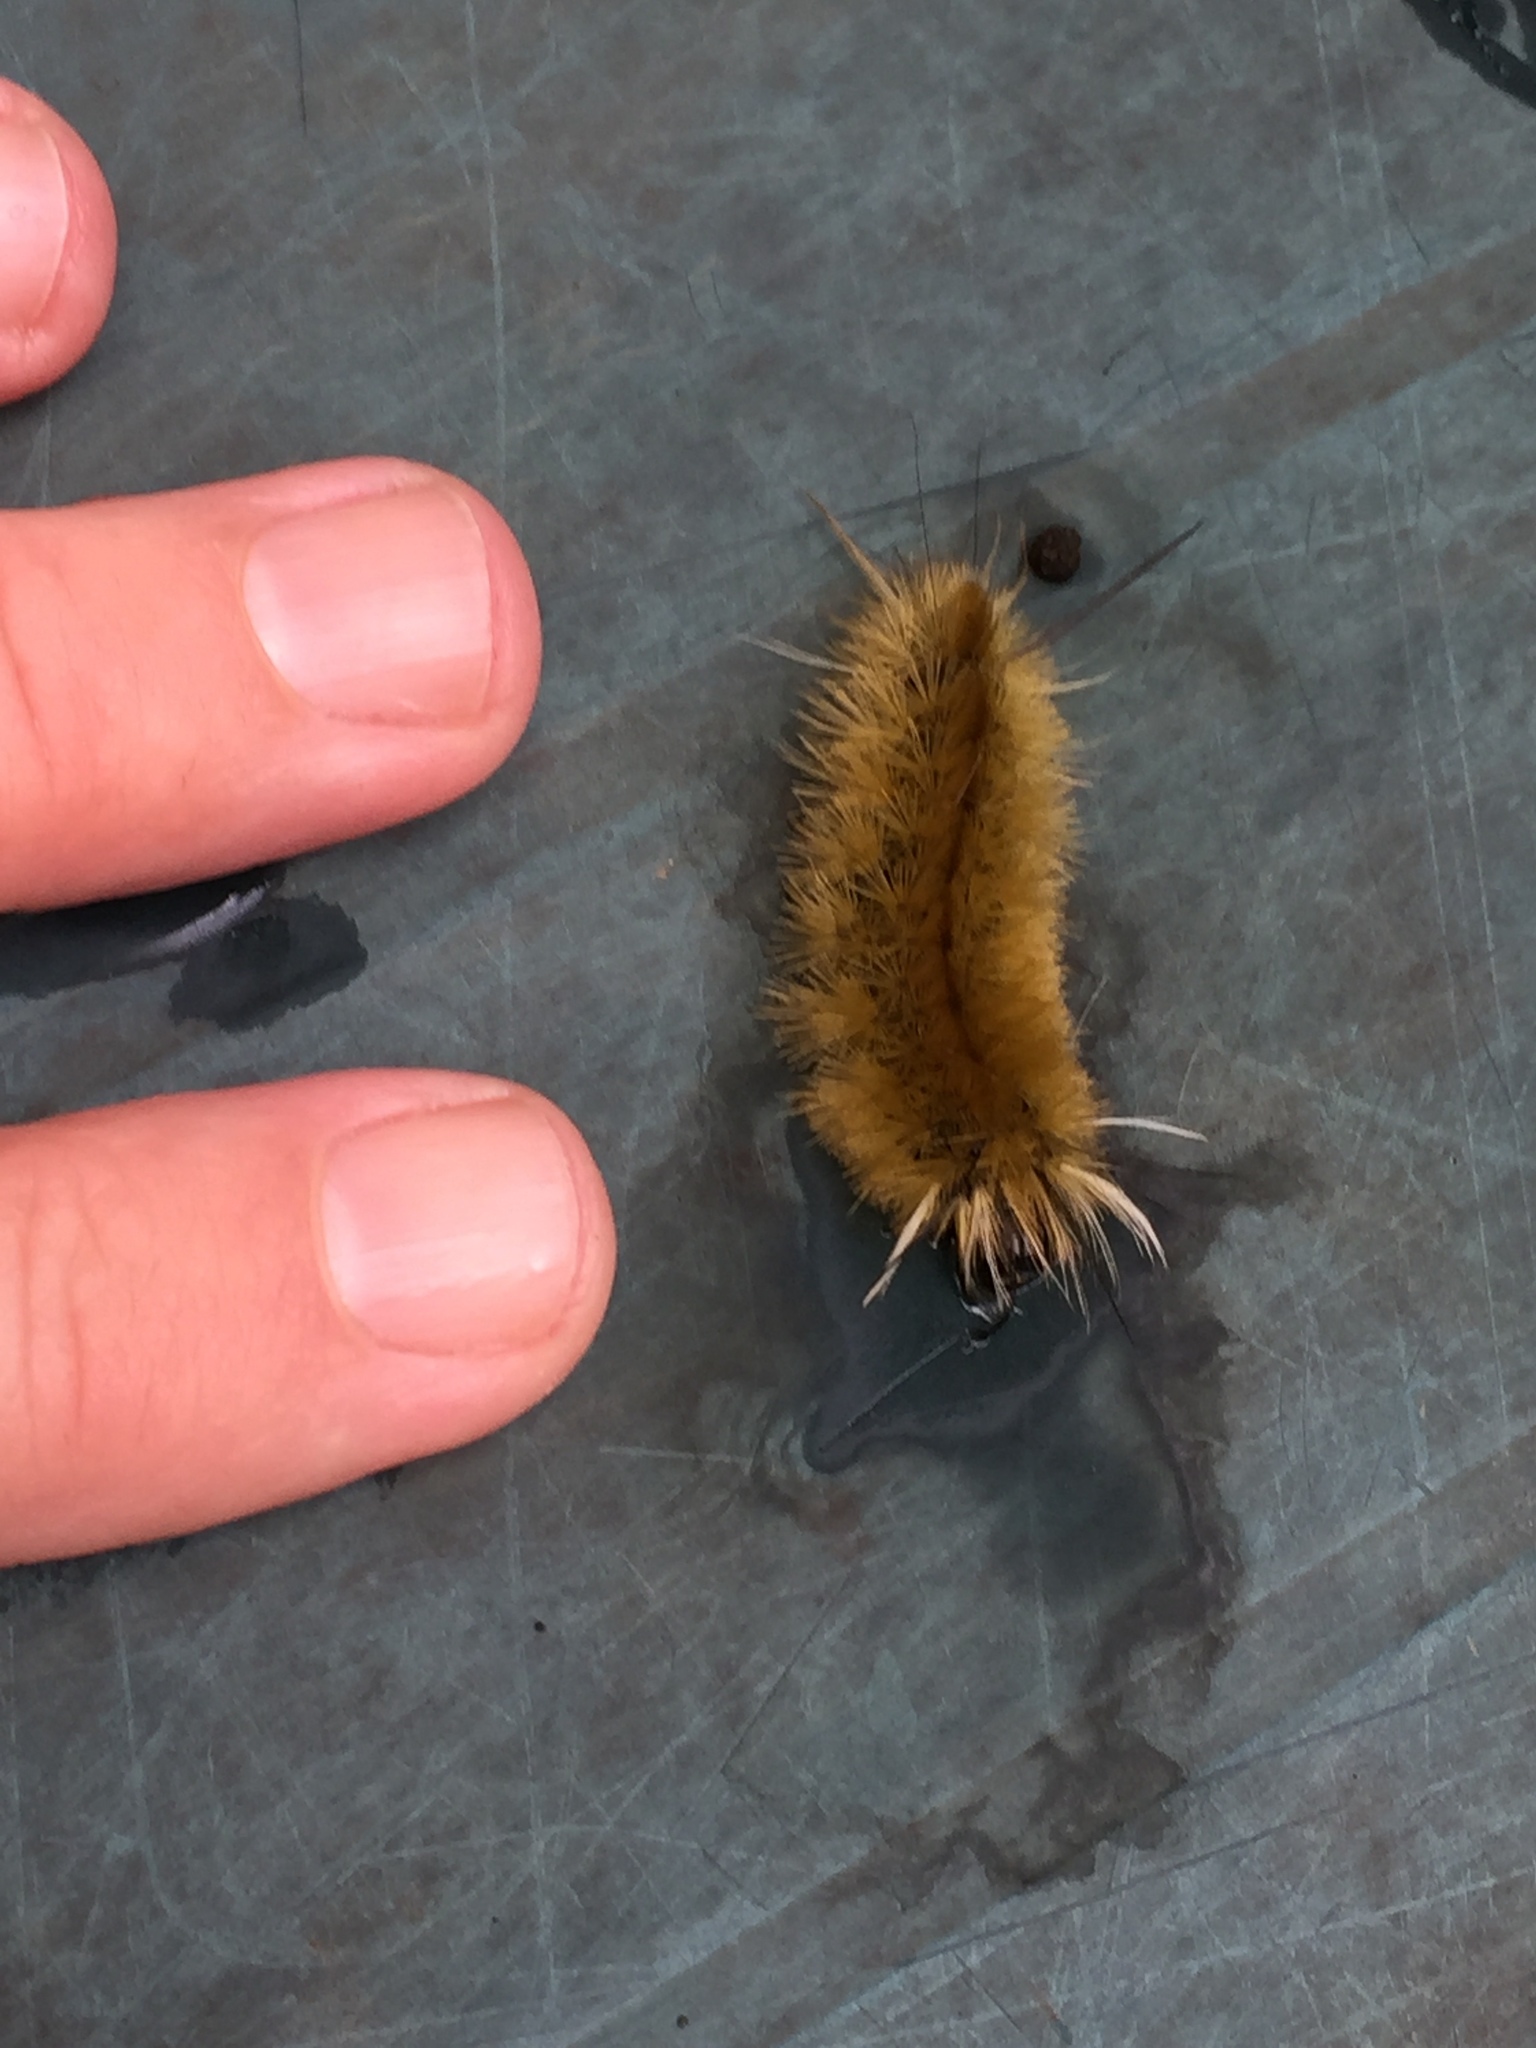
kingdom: Animalia
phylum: Arthropoda
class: Insecta
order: Lepidoptera
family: Erebidae
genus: Halysidota
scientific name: Halysidota tessellaris
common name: Banded tussock moth
